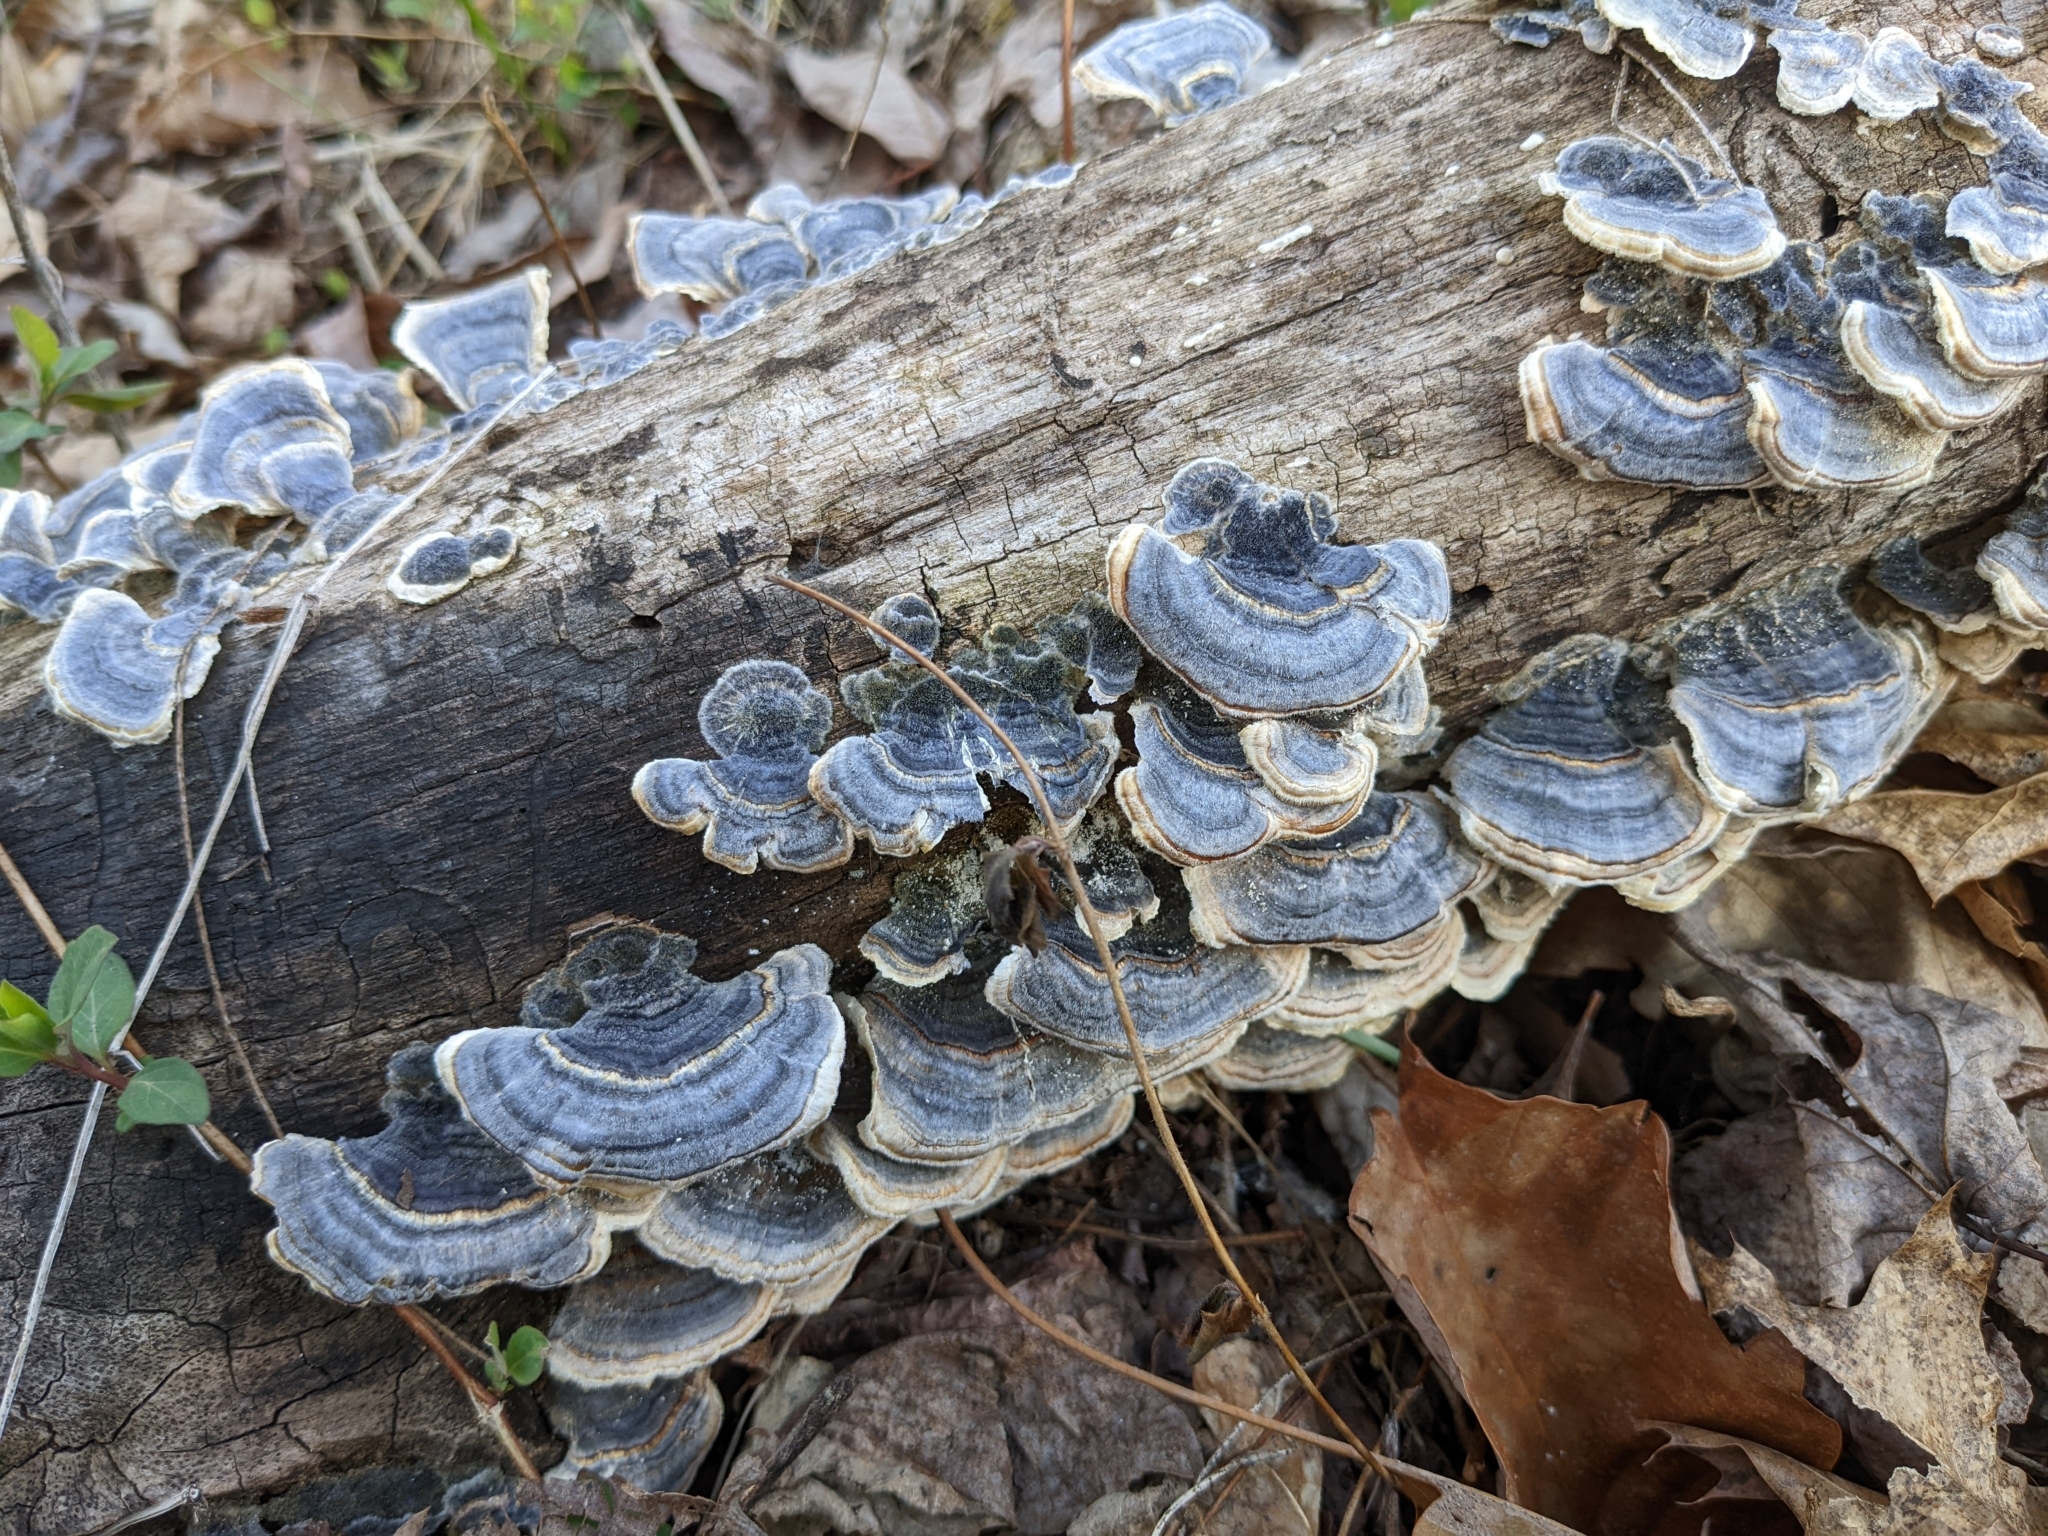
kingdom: Fungi
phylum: Basidiomycota
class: Agaricomycetes
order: Polyporales
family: Polyporaceae
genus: Trametes
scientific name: Trametes versicolor
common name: Turkeytail
